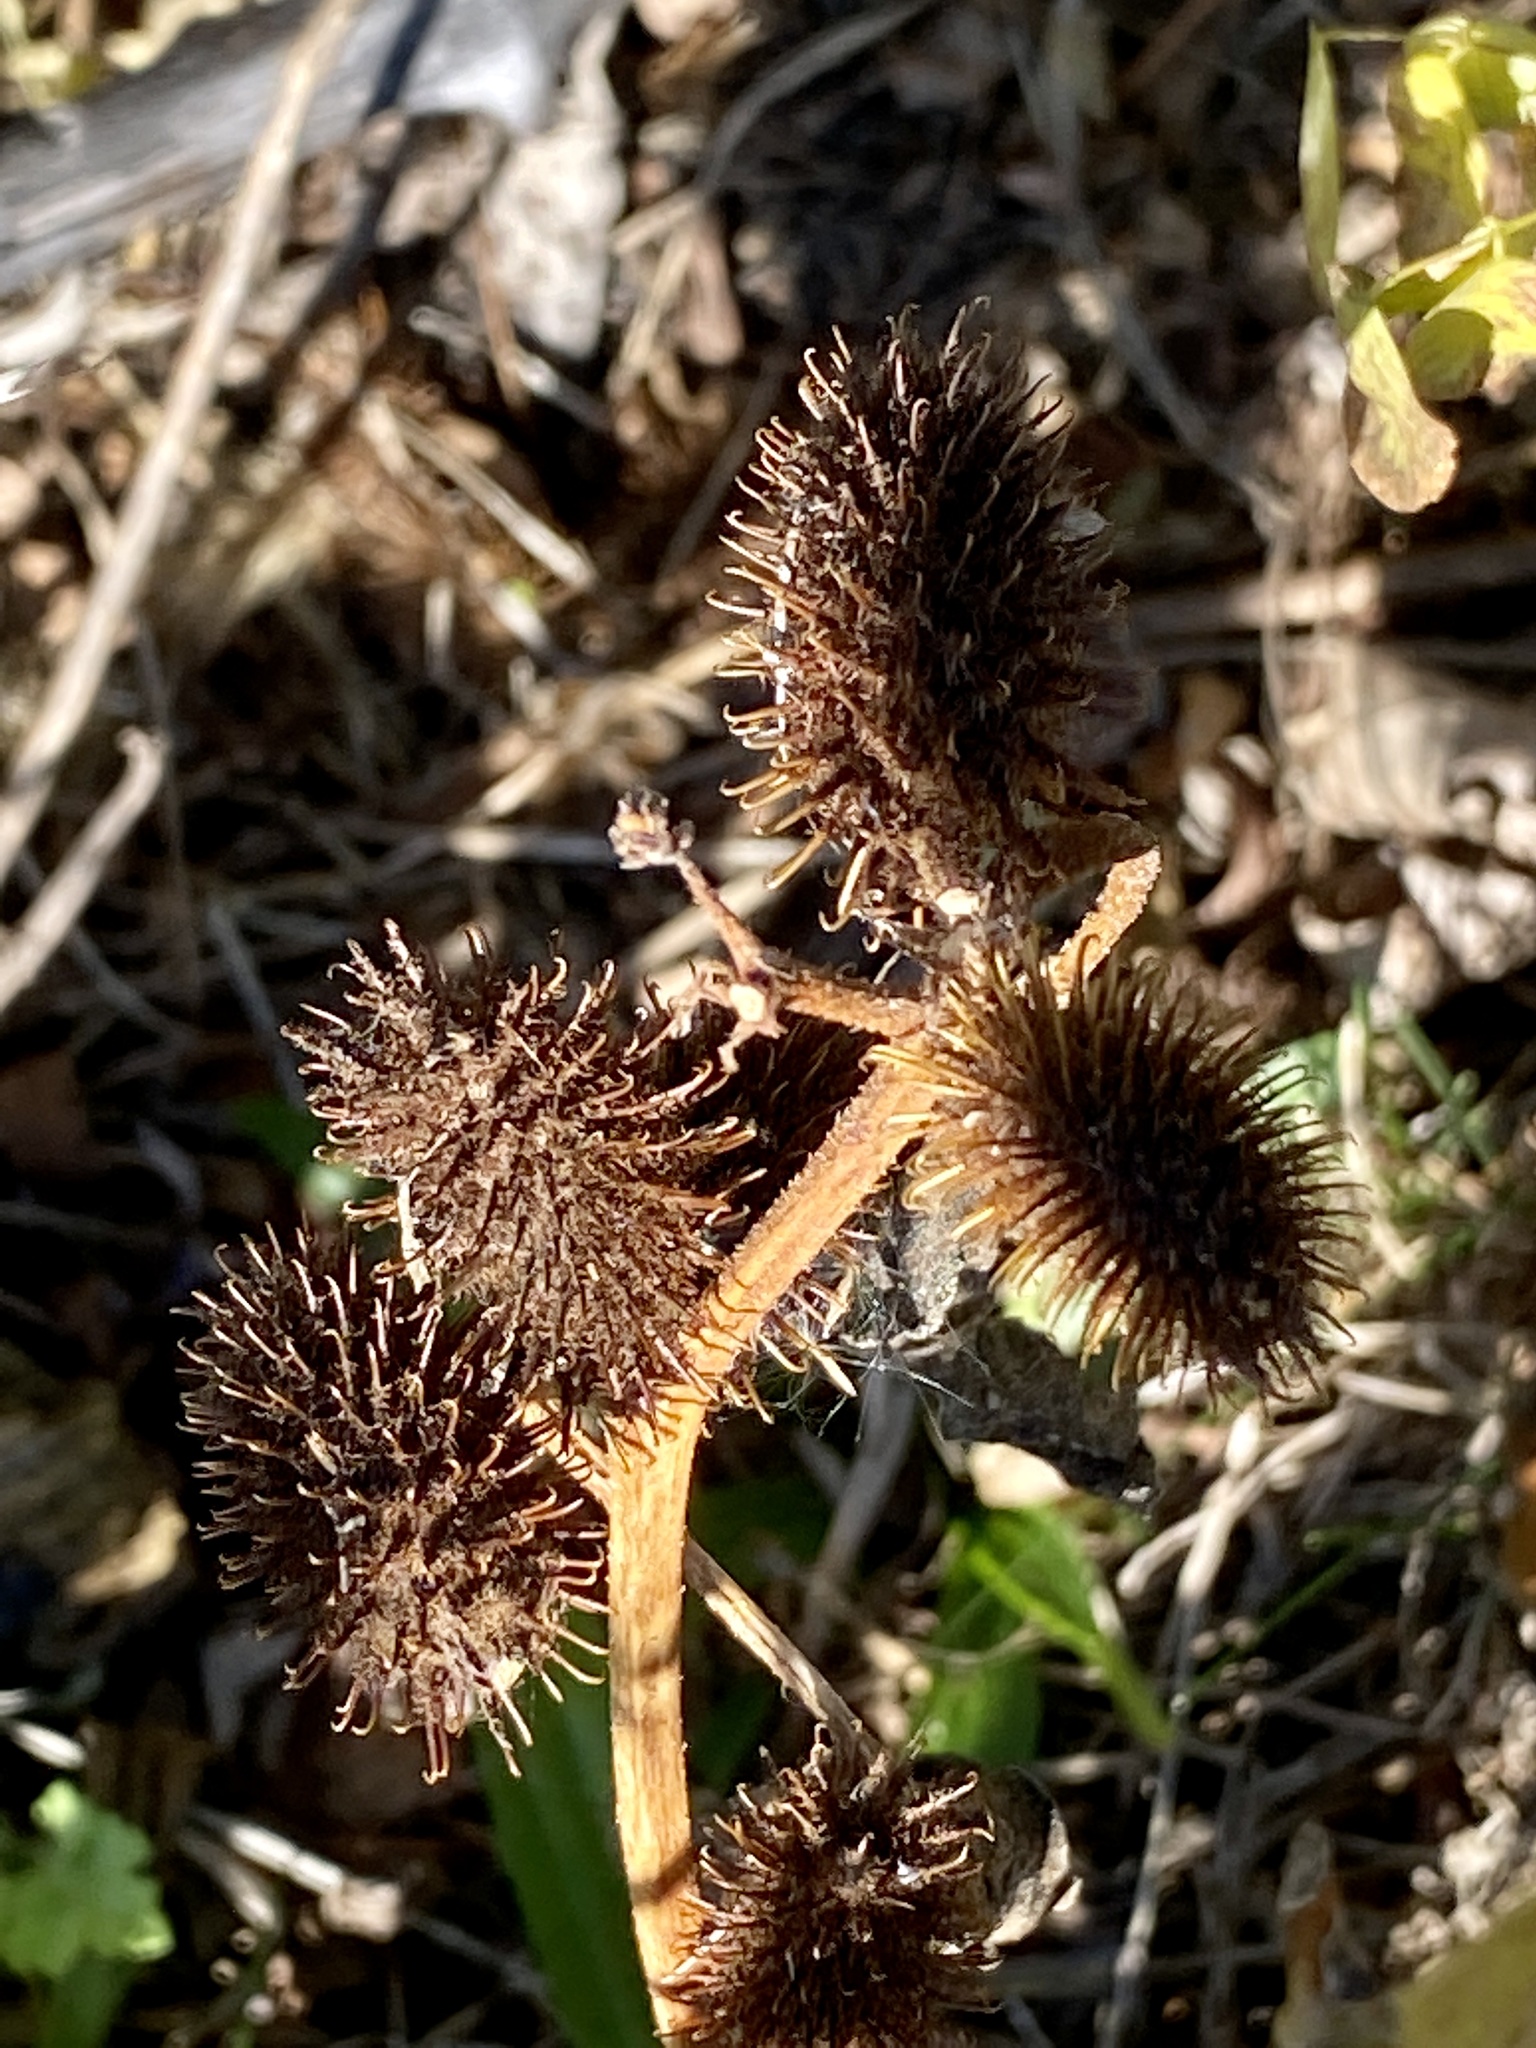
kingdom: Plantae
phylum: Tracheophyta
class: Magnoliopsida
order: Asterales
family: Asteraceae
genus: Xanthium
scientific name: Xanthium strumarium
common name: Rough cocklebur
